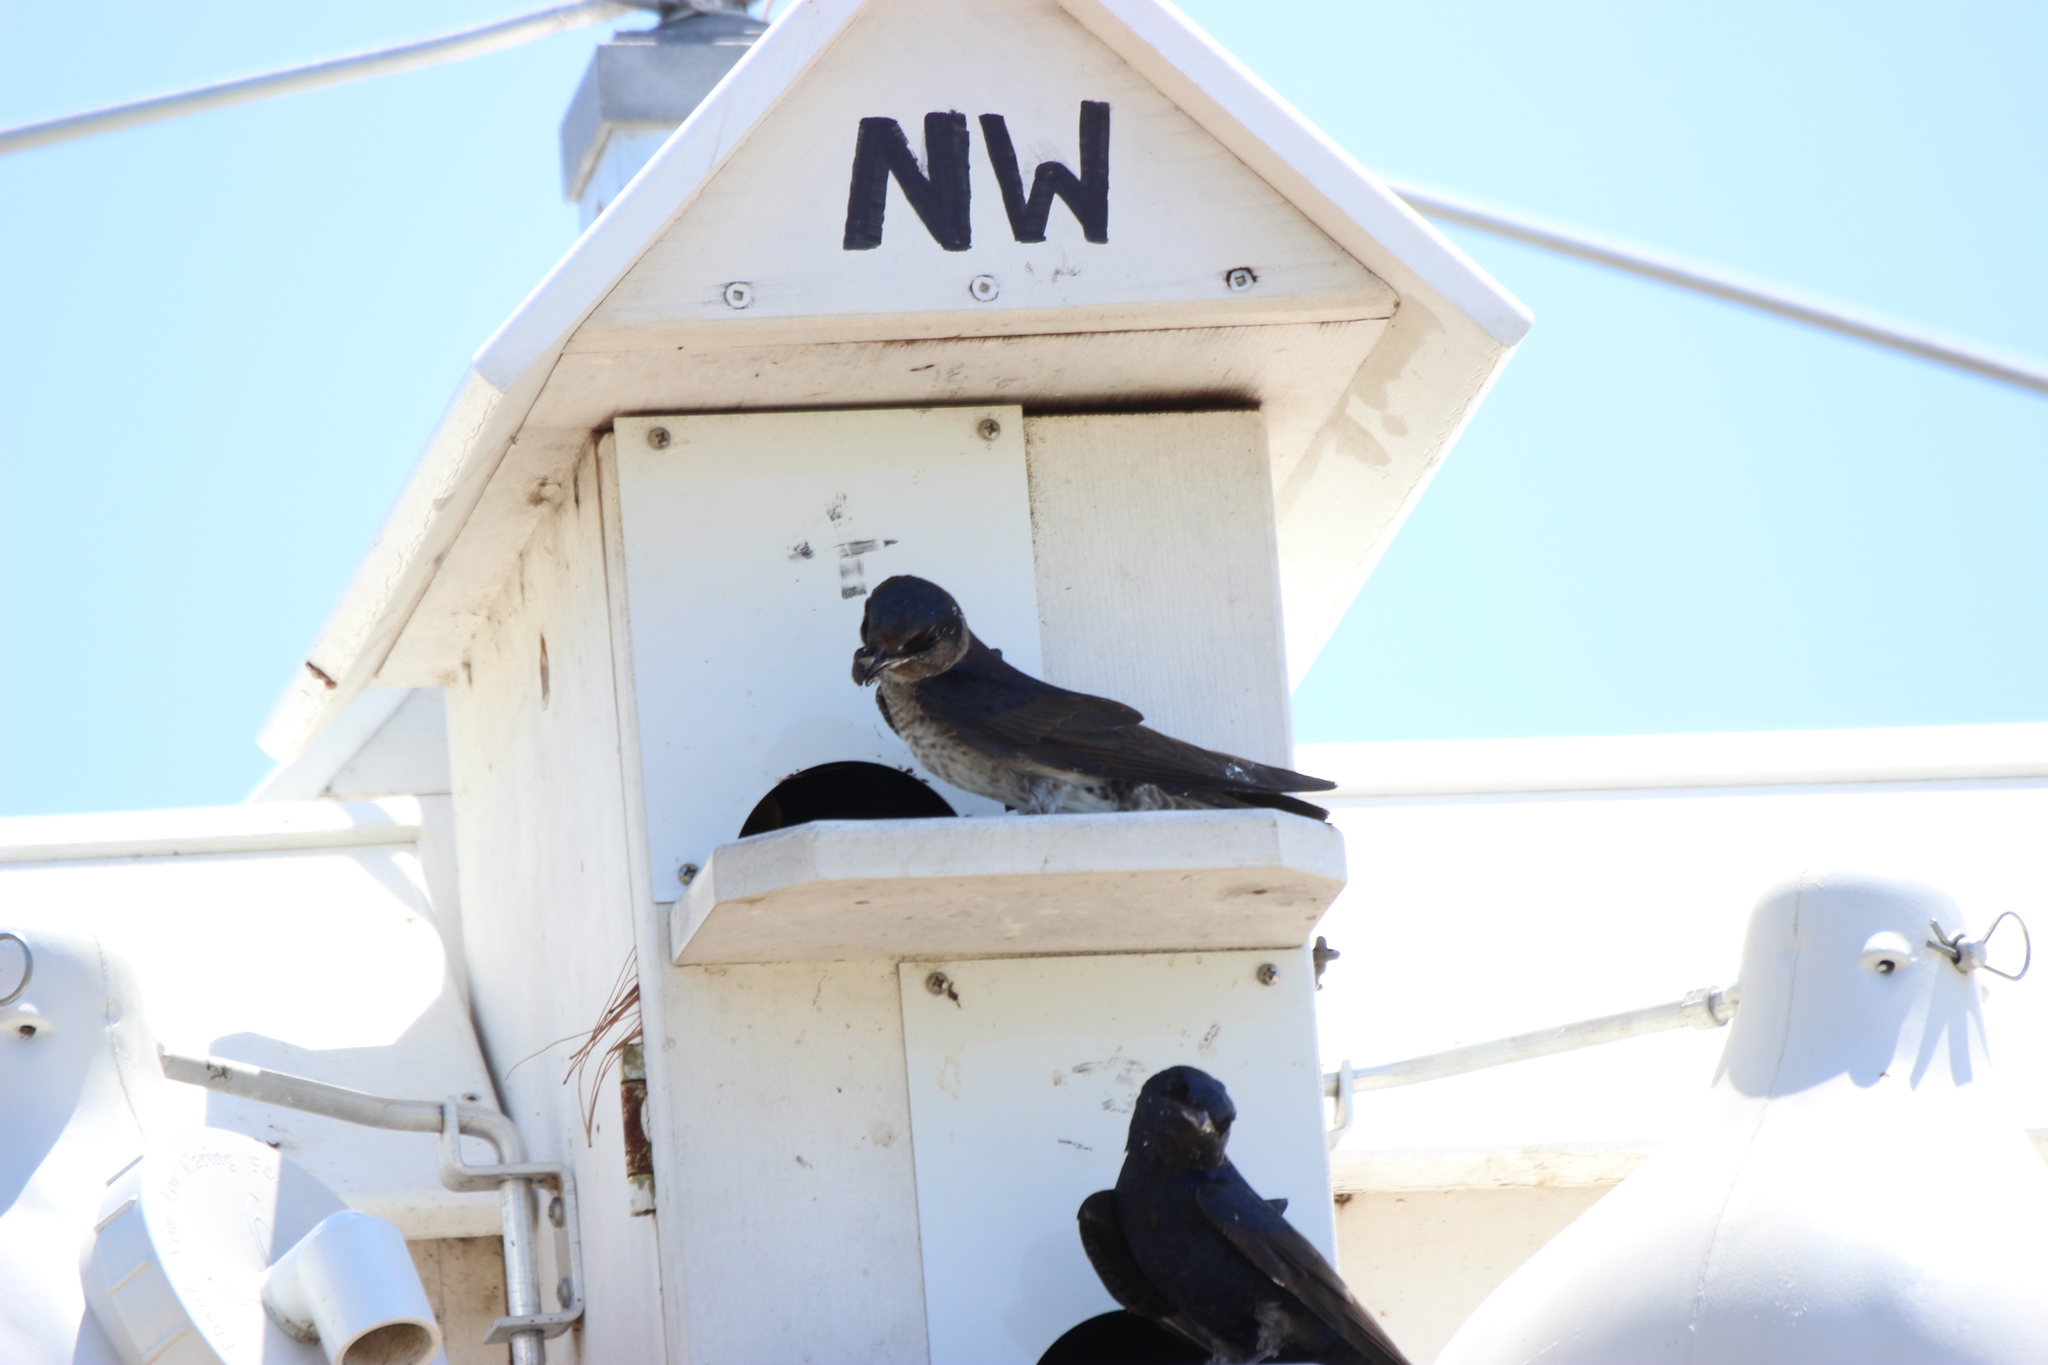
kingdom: Animalia
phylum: Chordata
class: Aves
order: Passeriformes
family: Hirundinidae
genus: Progne
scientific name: Progne subis
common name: Purple martin
